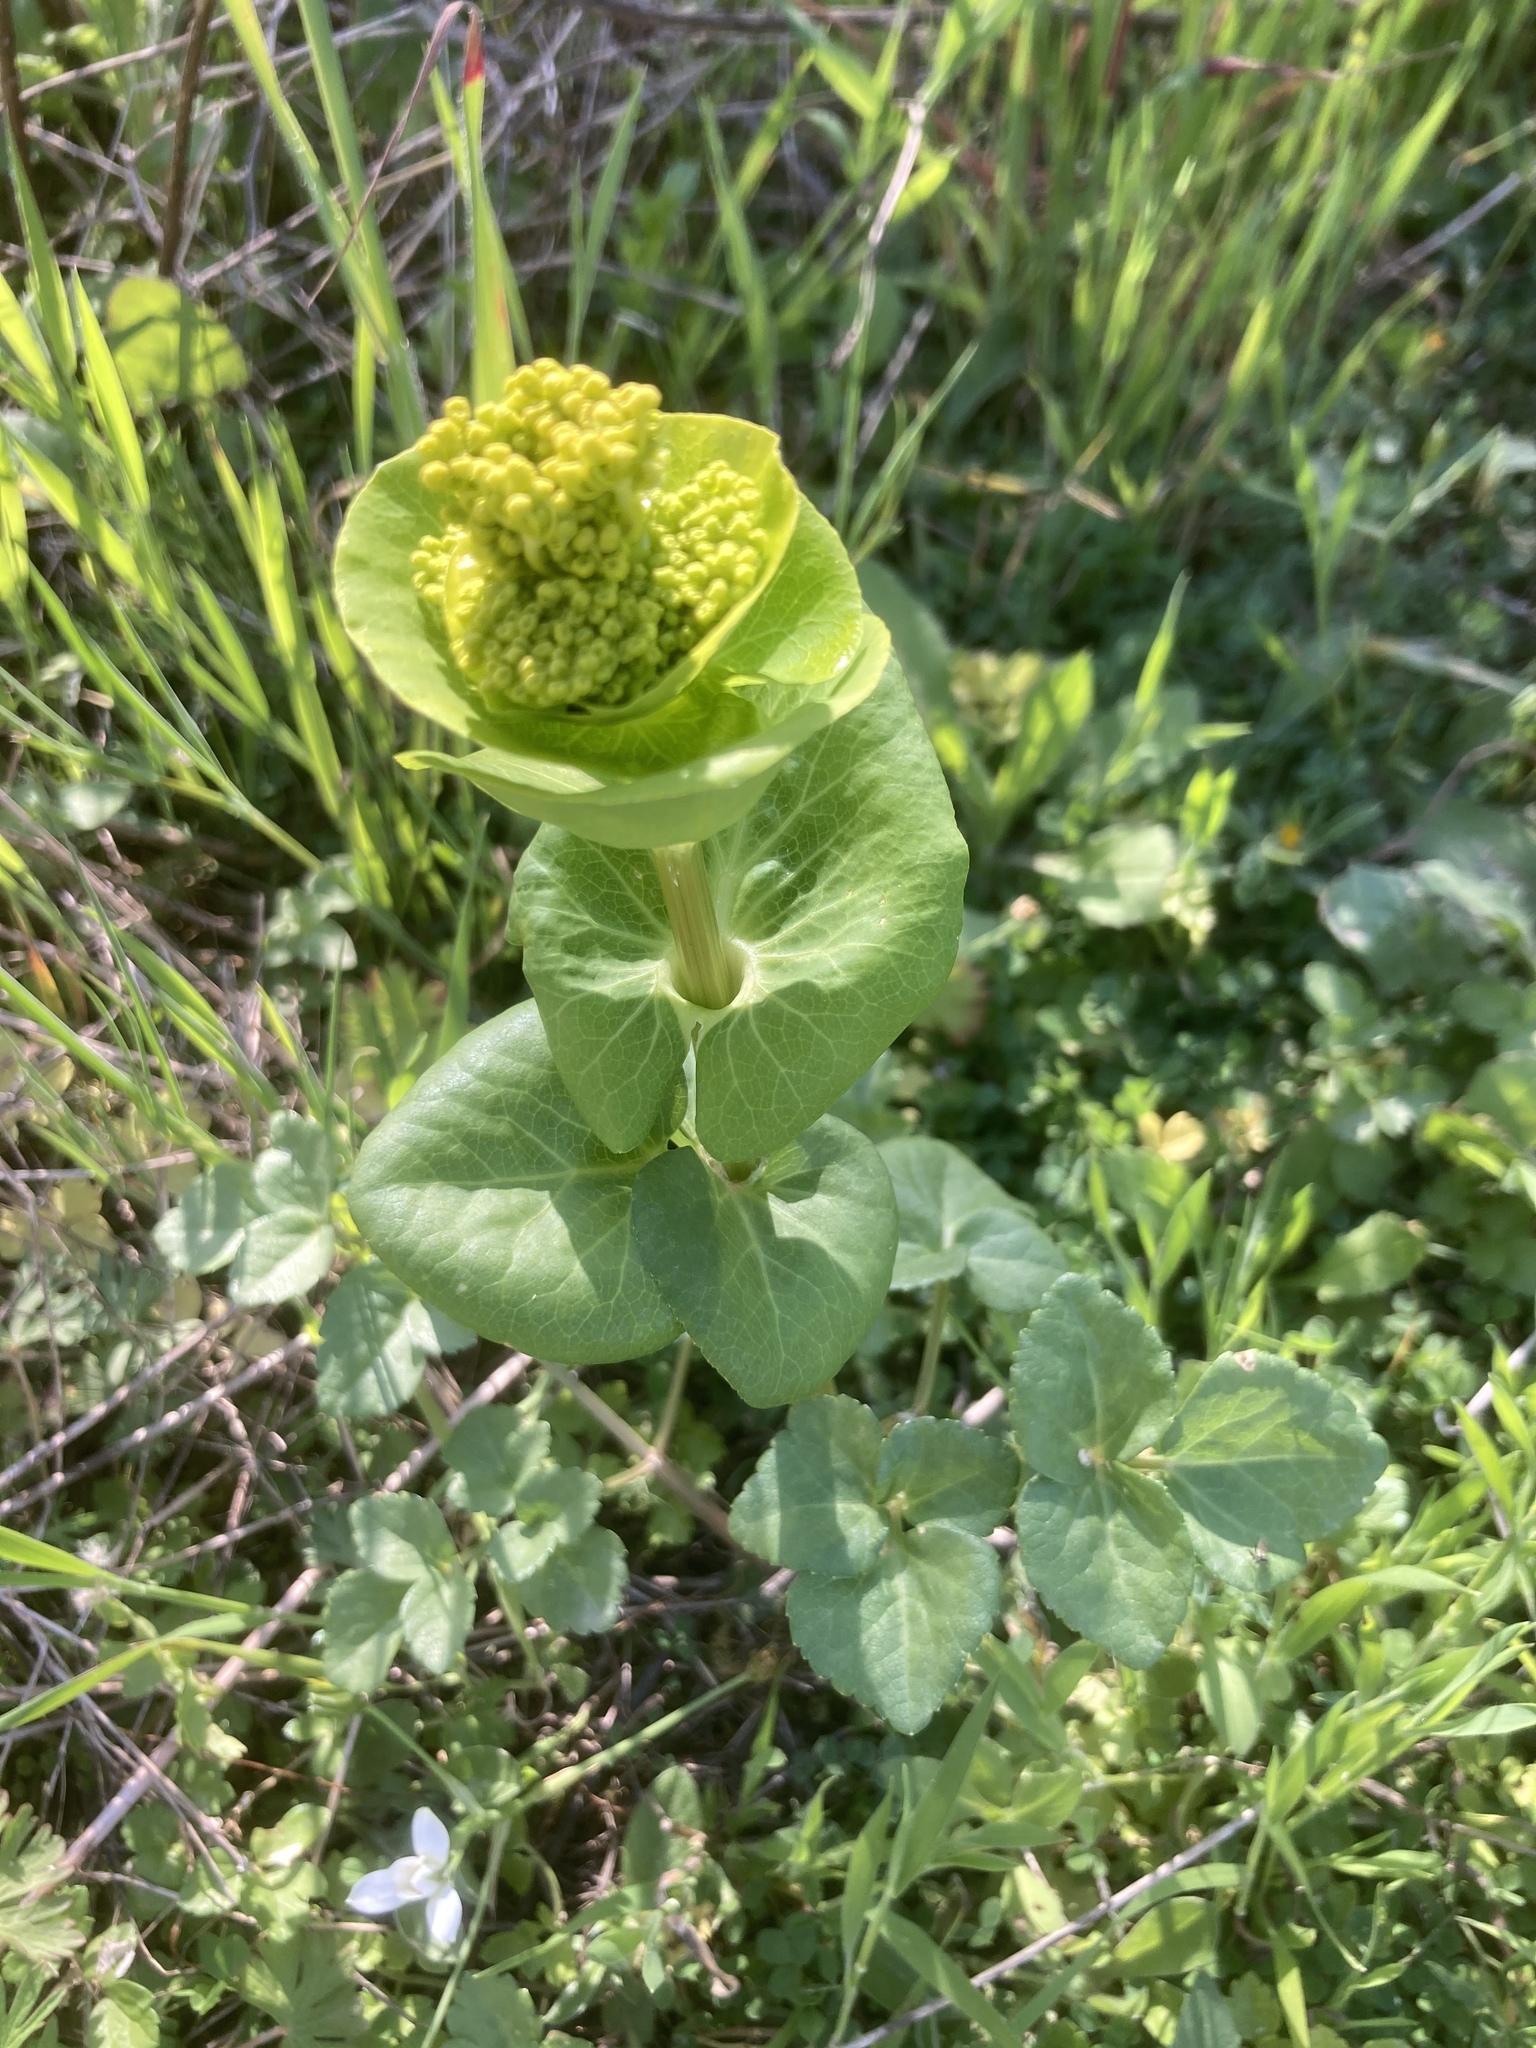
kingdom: Plantae
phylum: Tracheophyta
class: Magnoliopsida
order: Apiales
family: Apiaceae
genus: Smyrnium
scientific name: Smyrnium perfoliatum
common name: Perfoliate alexanders
